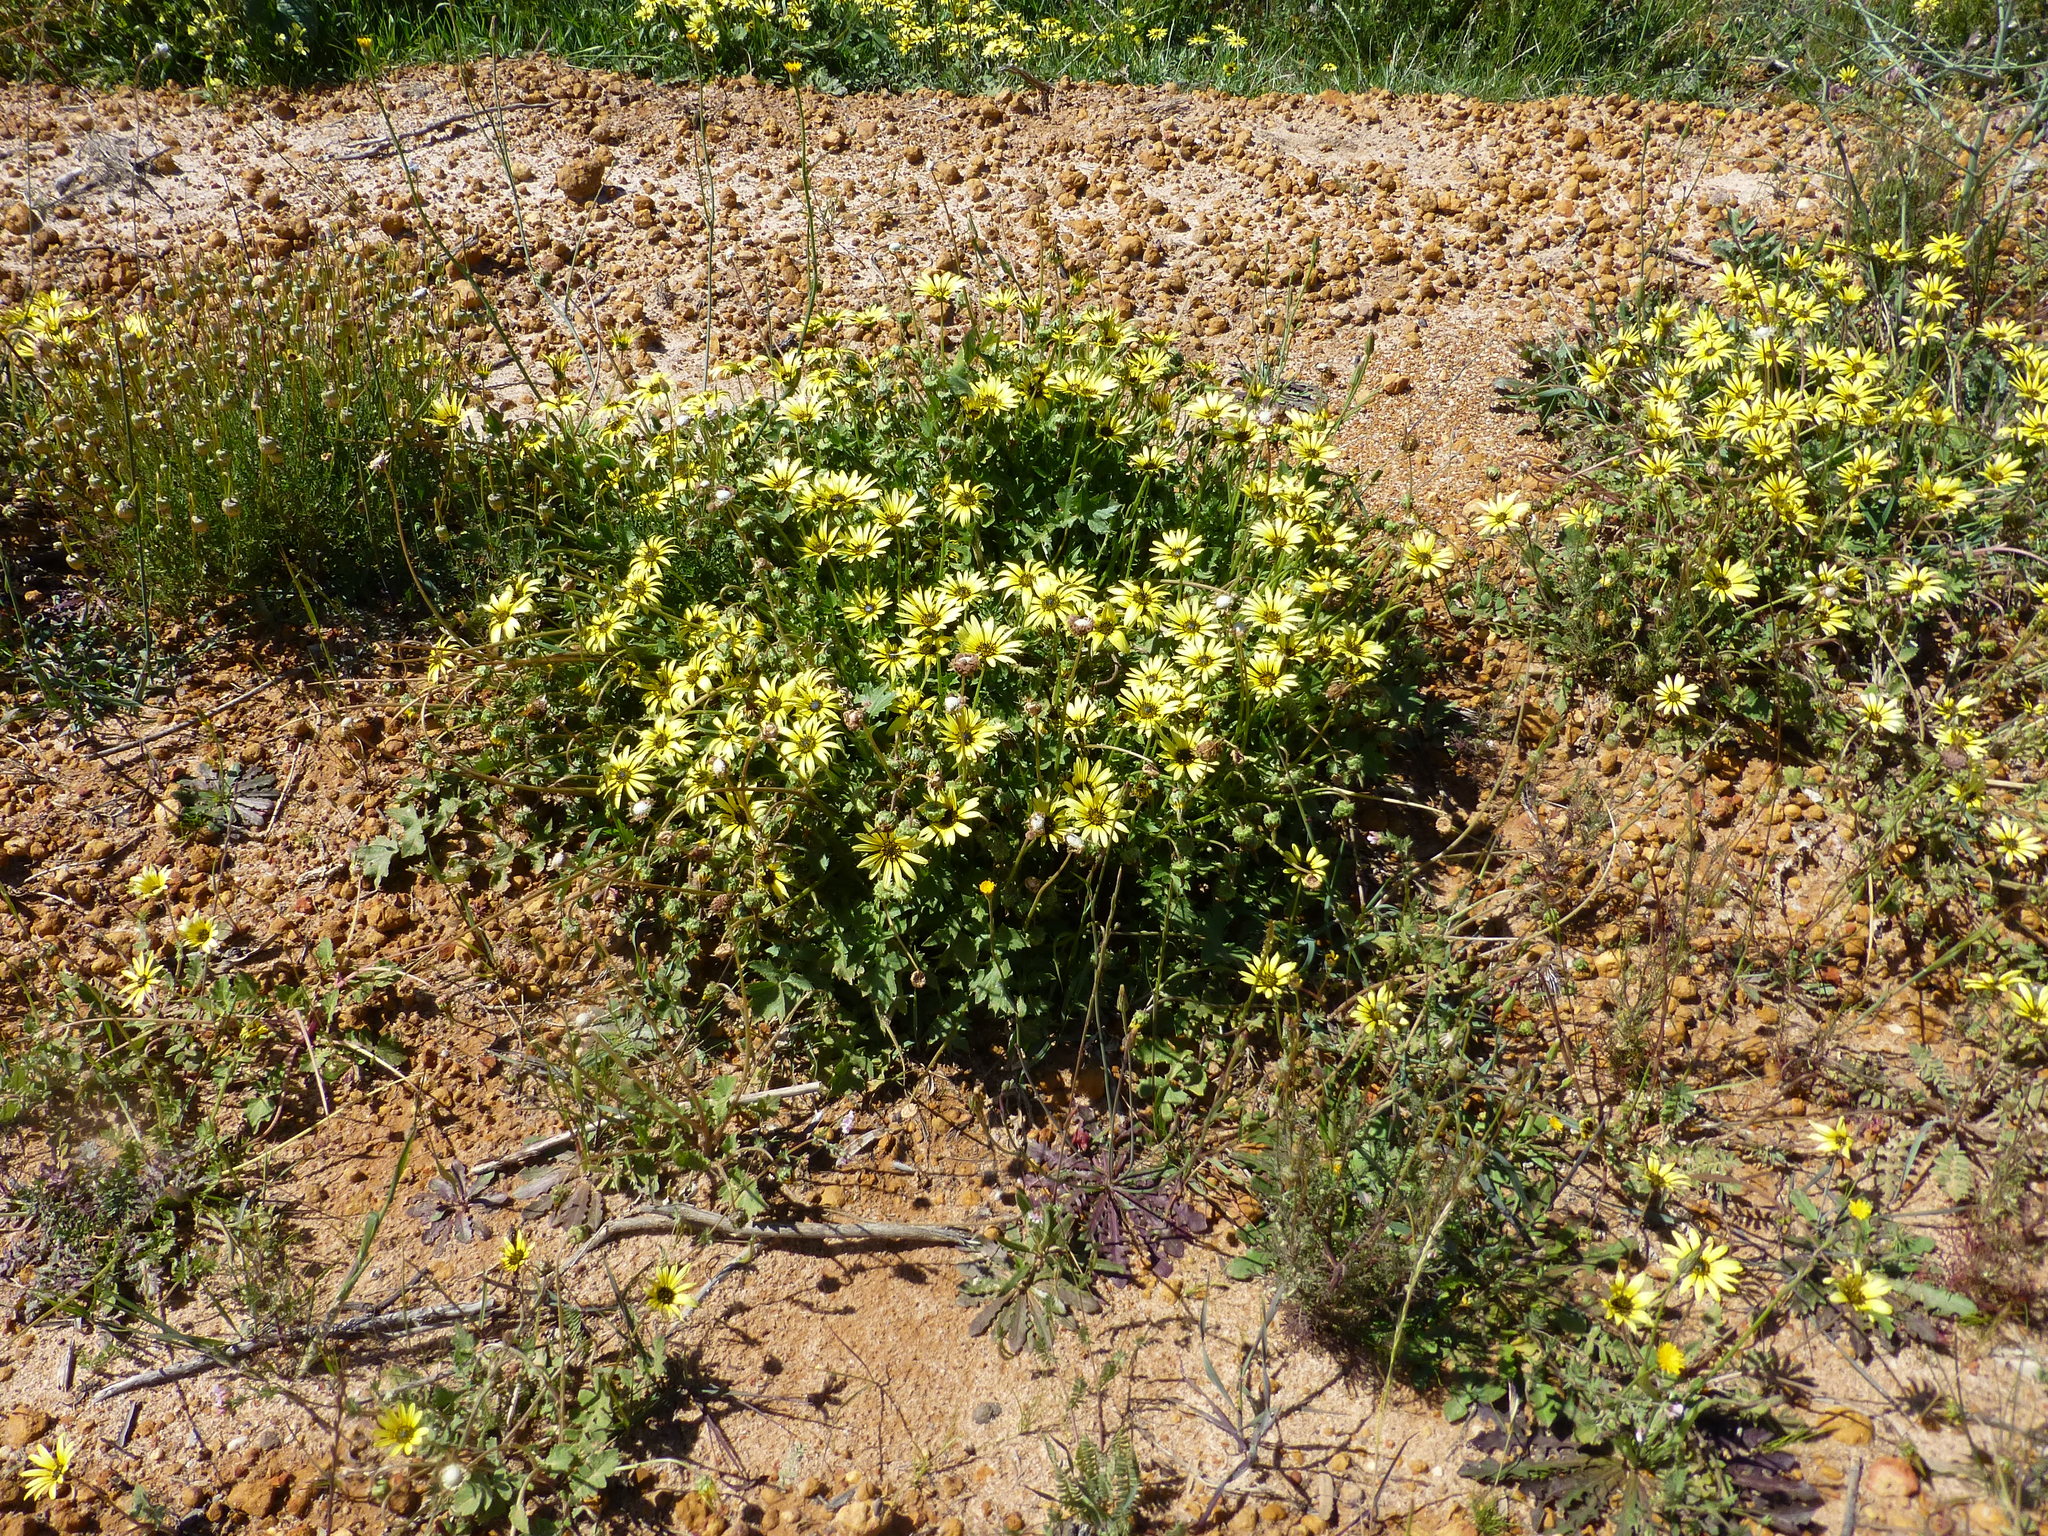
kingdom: Plantae
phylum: Tracheophyta
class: Magnoliopsida
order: Asterales
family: Asteraceae
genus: Arctotheca
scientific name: Arctotheca calendula
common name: Capeweed
